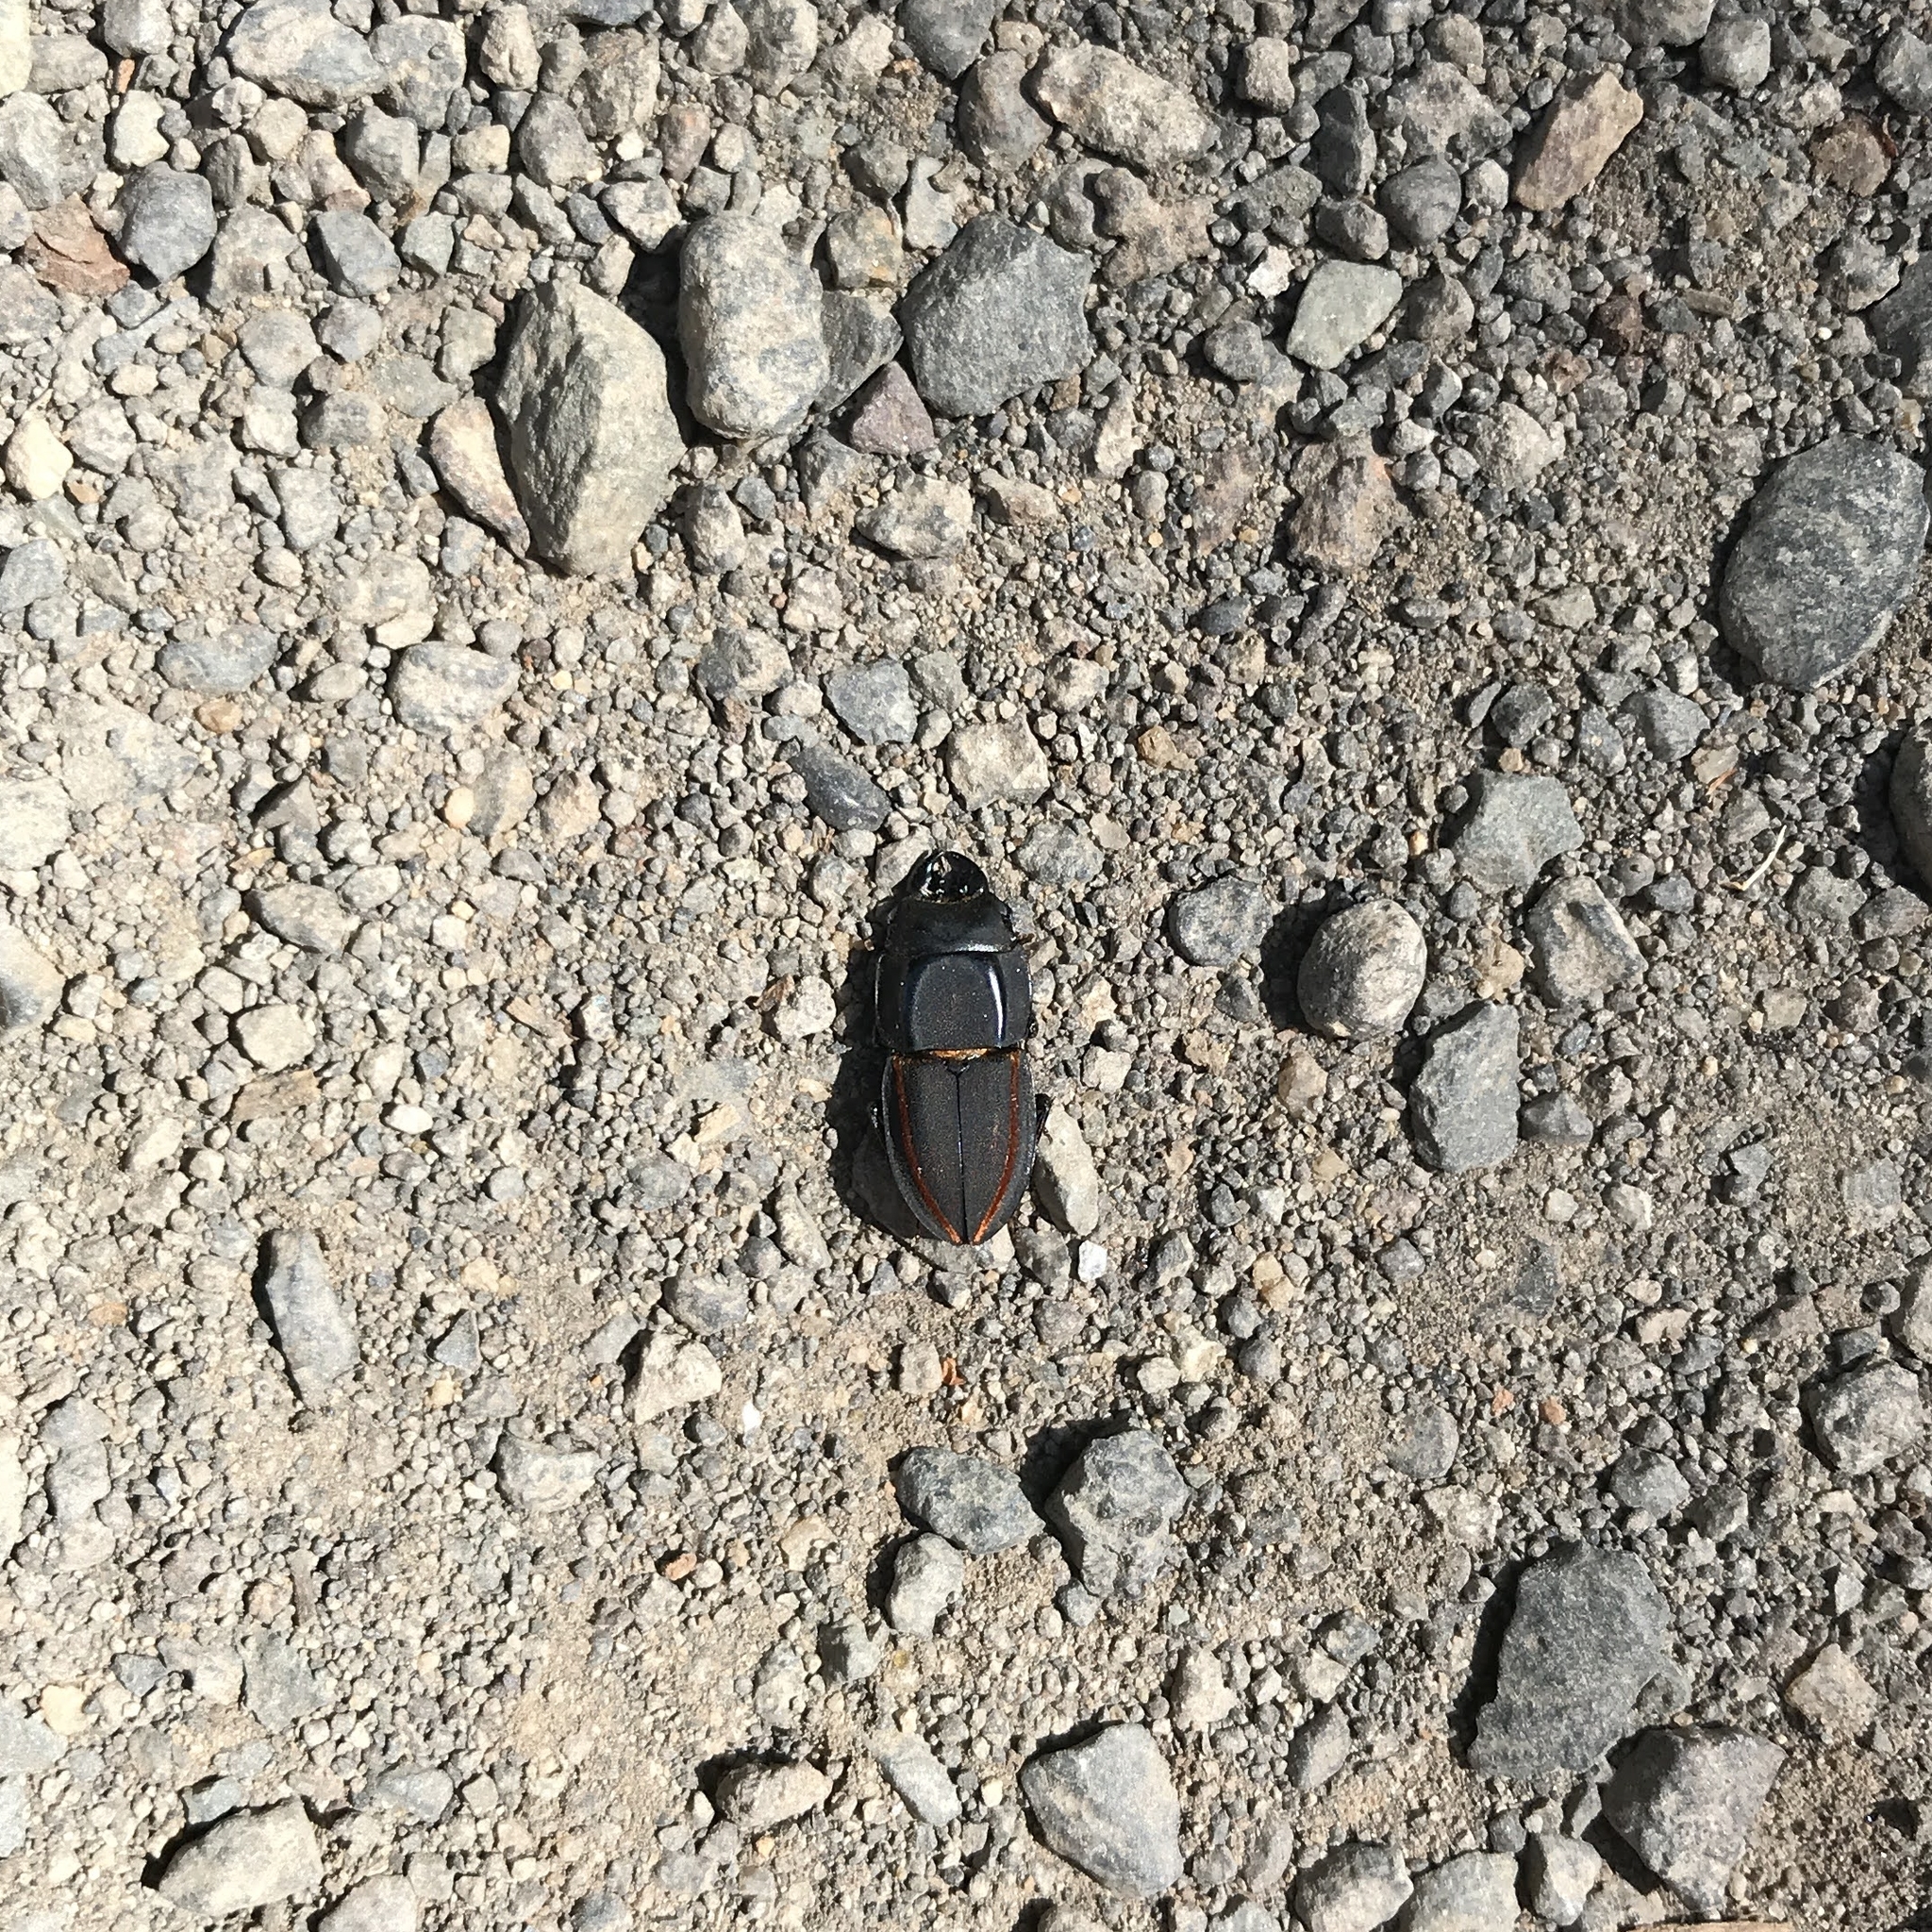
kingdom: Animalia
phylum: Arthropoda
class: Insecta
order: Coleoptera
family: Lucanidae
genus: Erichius
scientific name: Erichius vittatus
